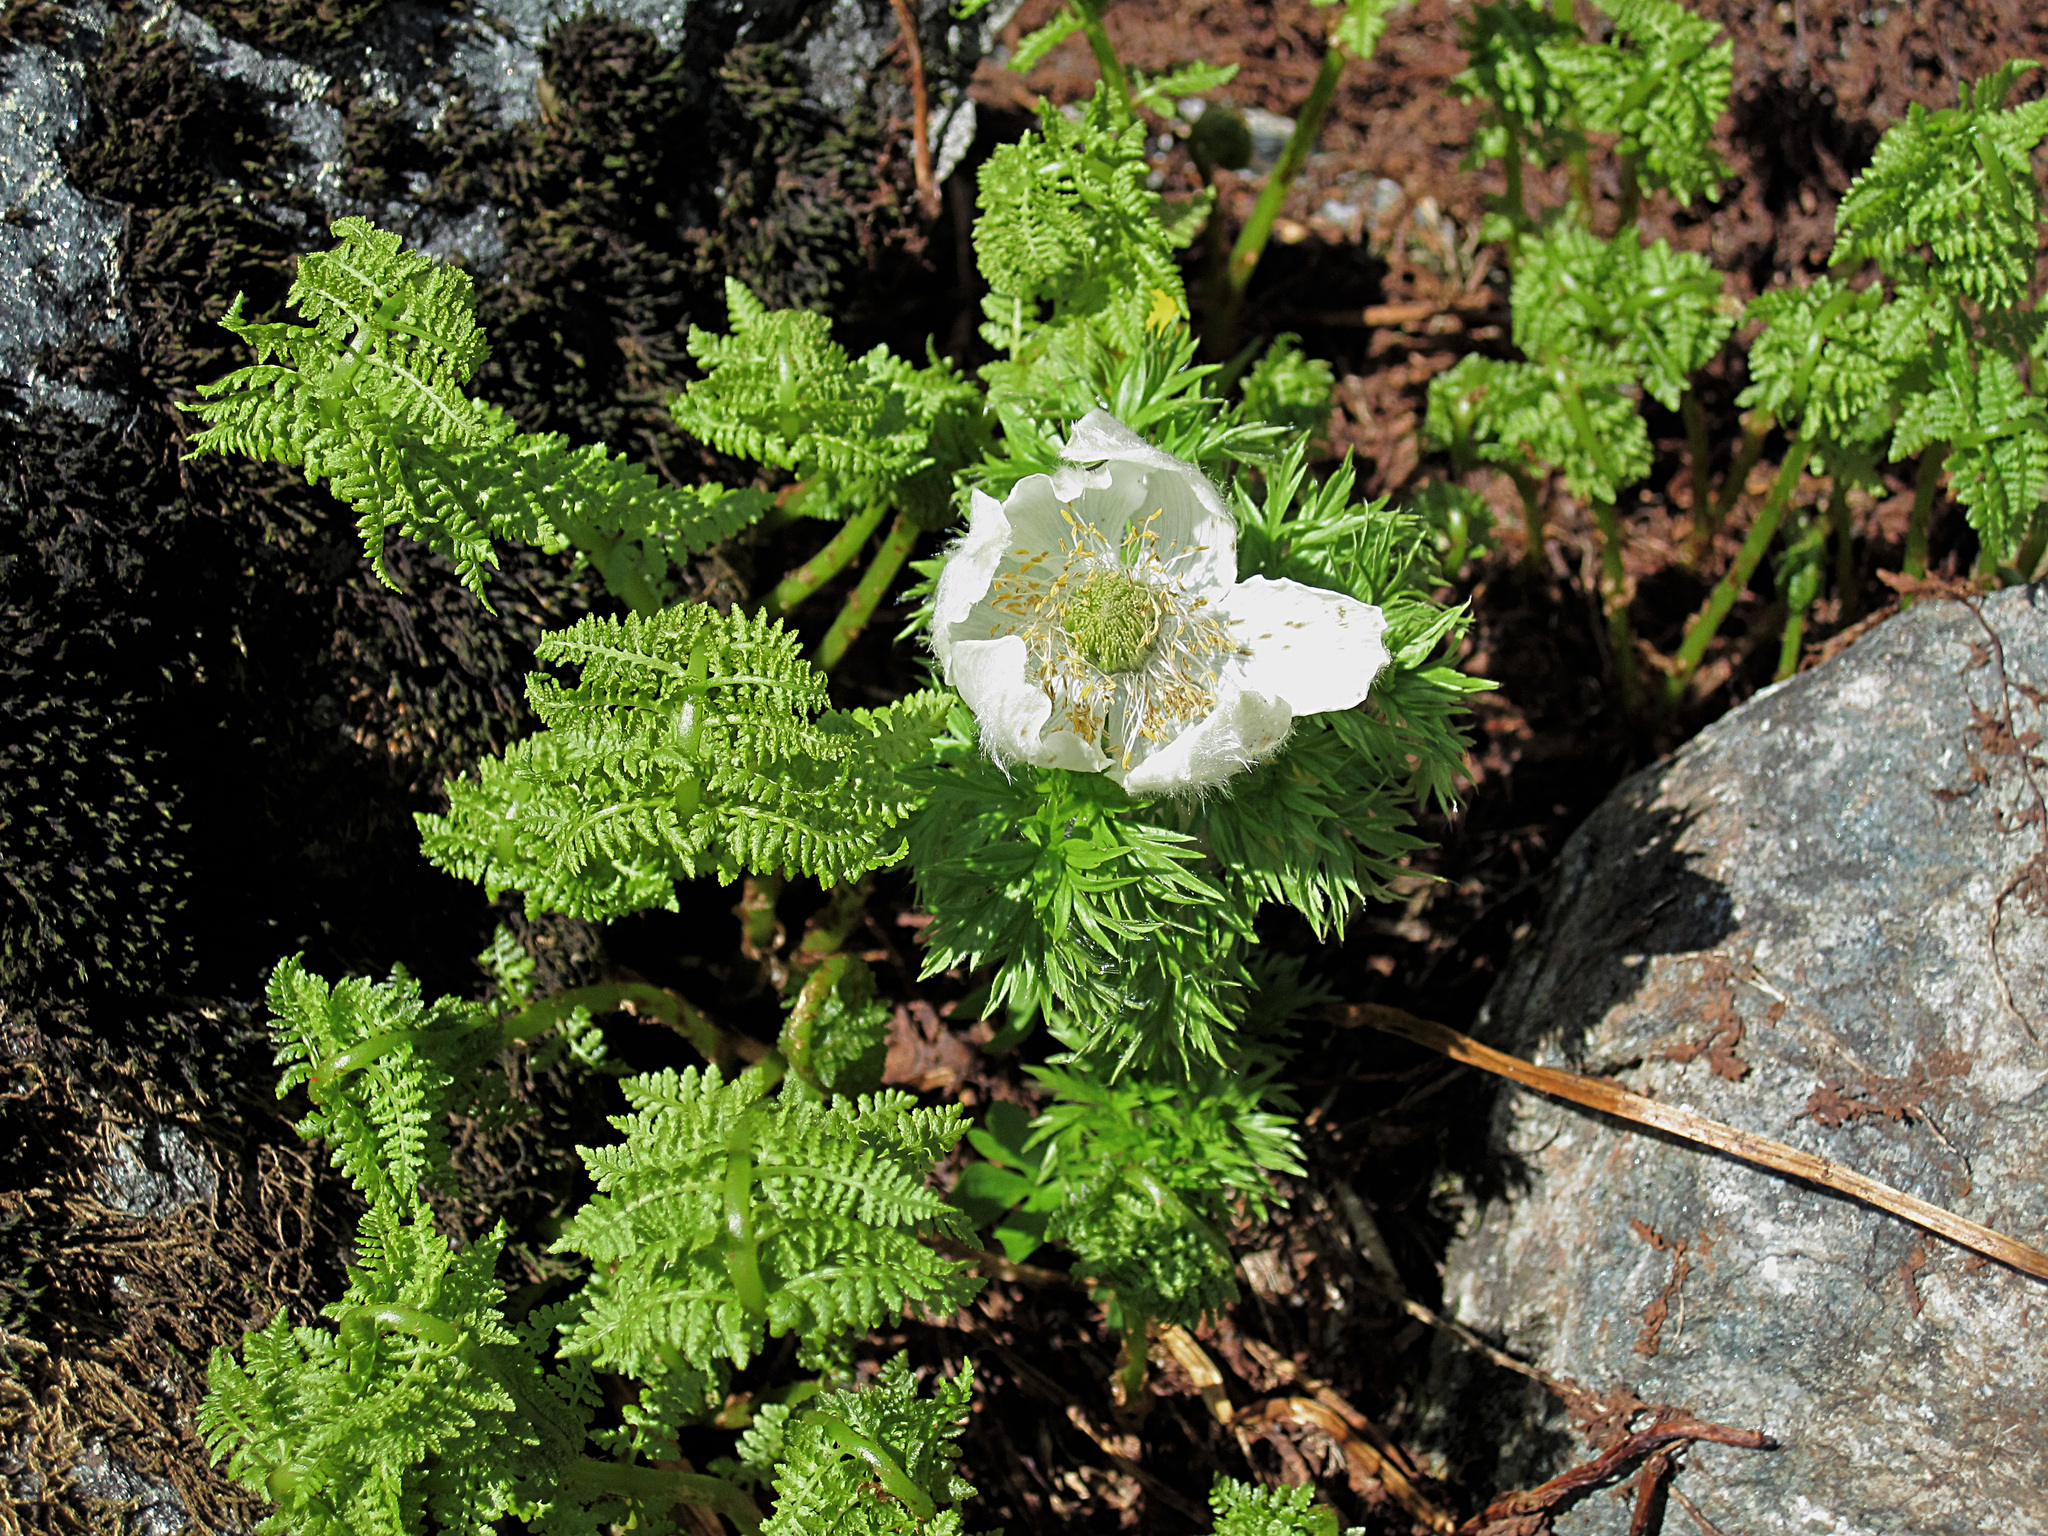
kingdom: Plantae
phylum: Tracheophyta
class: Magnoliopsida
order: Ranunculales
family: Ranunculaceae
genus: Pulsatilla
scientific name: Pulsatilla occidentalis
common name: Mountain pasqueflower
